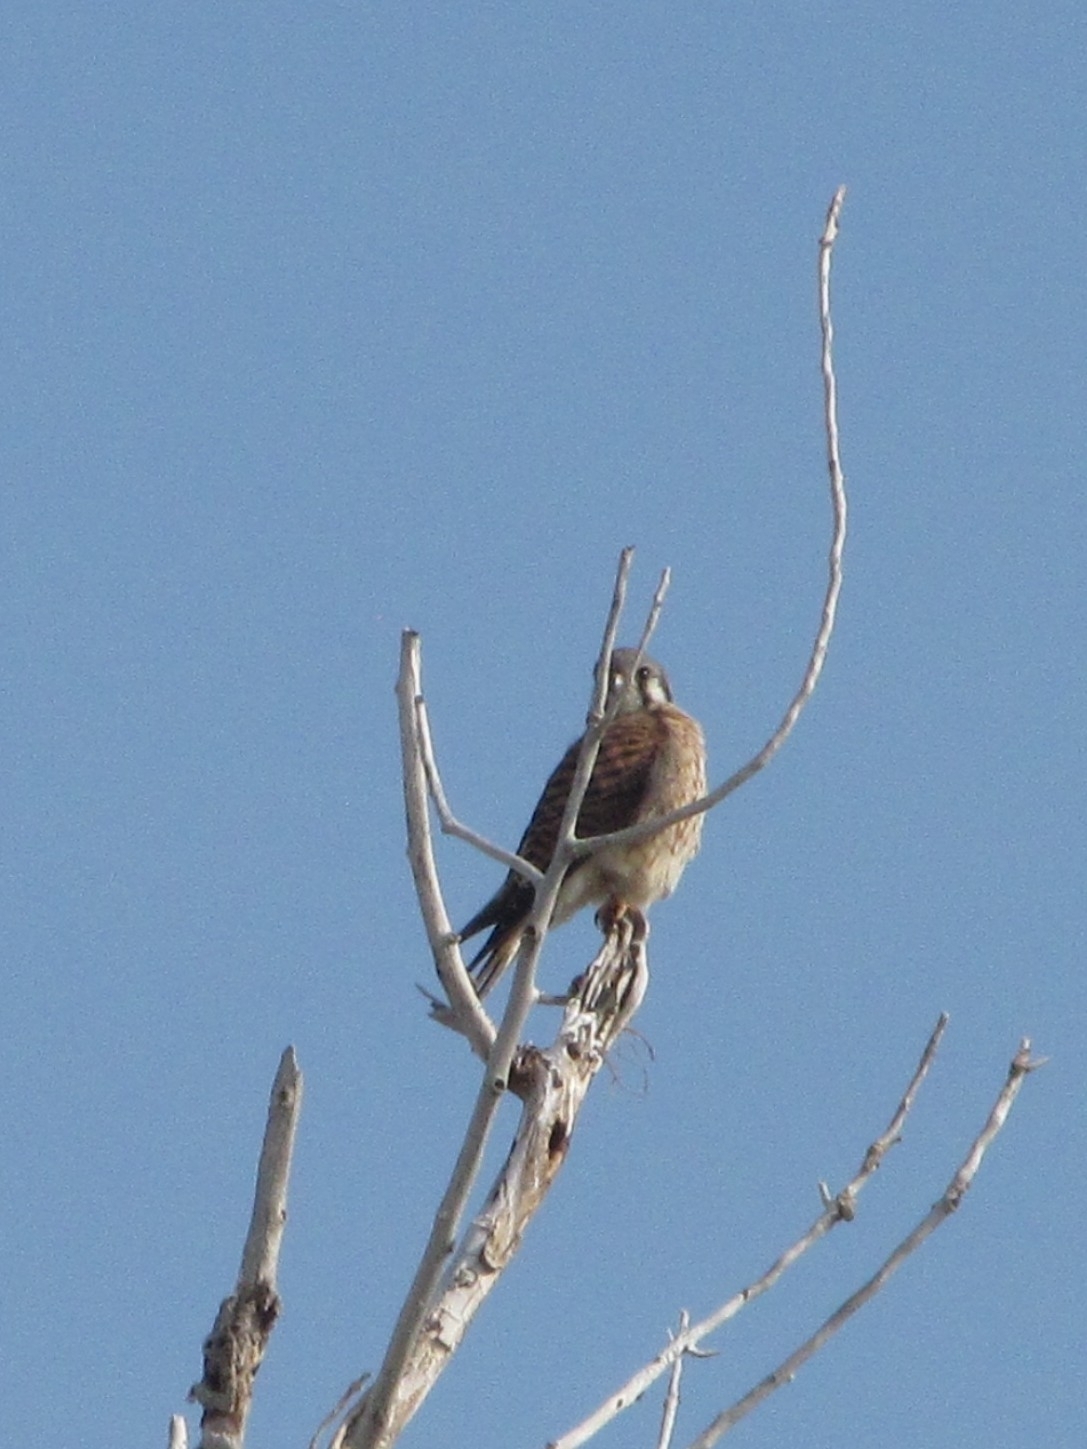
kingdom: Animalia
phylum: Chordata
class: Aves
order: Falconiformes
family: Falconidae
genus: Falco
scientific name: Falco sparverius
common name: American kestrel
